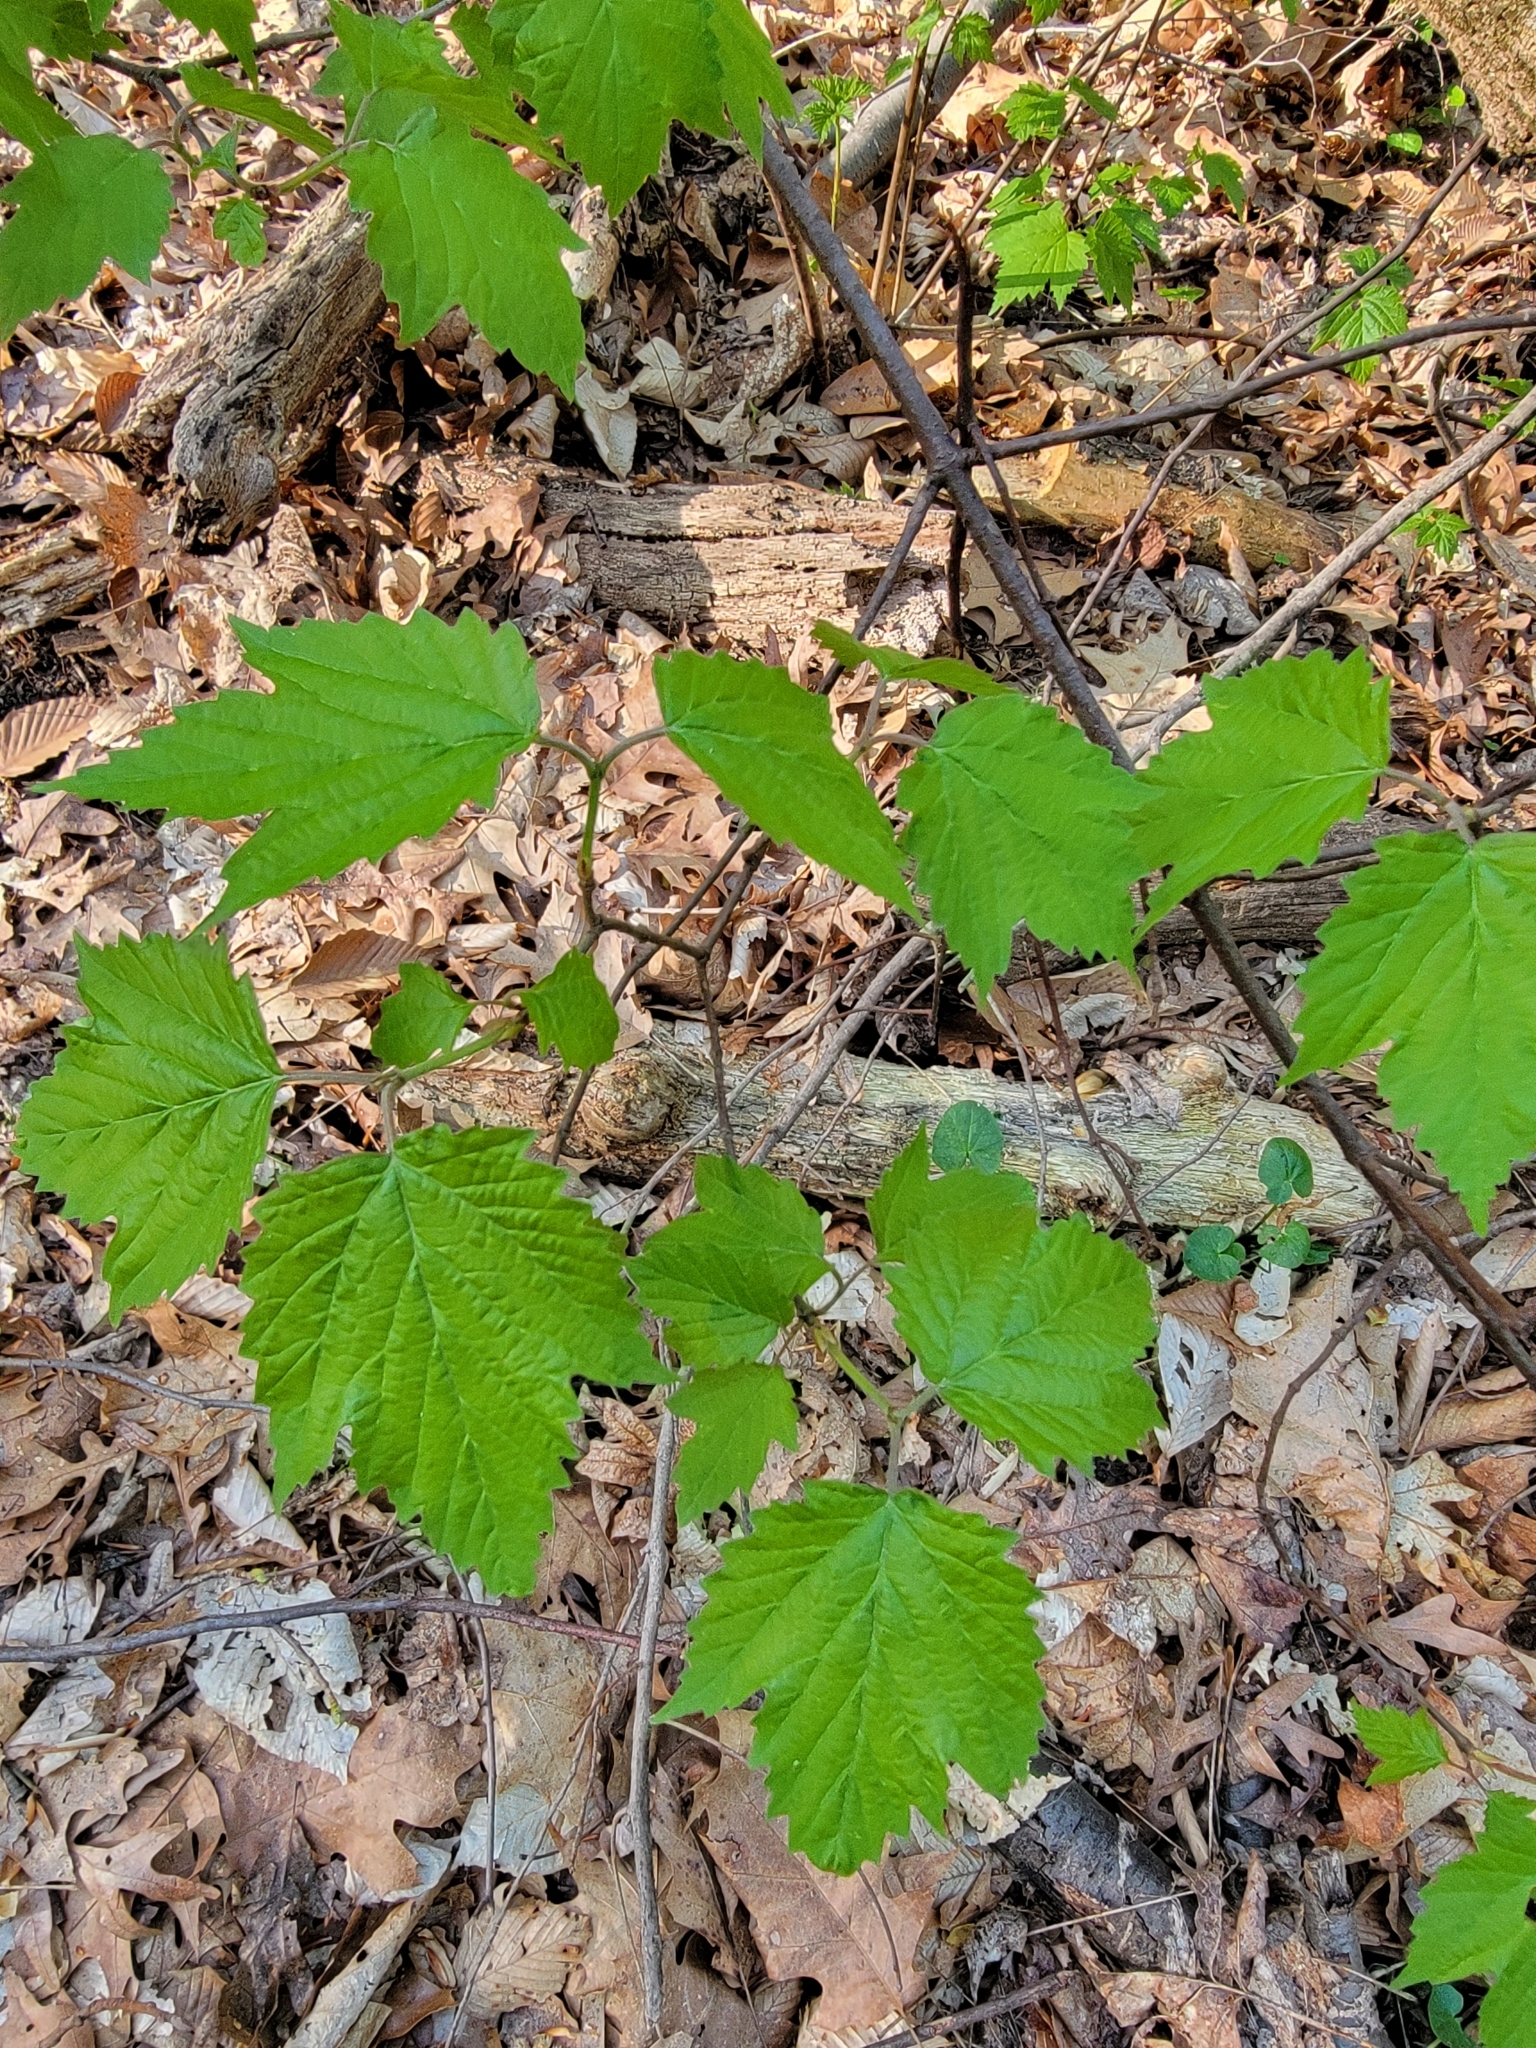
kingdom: Plantae
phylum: Tracheophyta
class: Magnoliopsida
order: Dipsacales
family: Viburnaceae
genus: Viburnum
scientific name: Viburnum acerifolium
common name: Dockmackie
